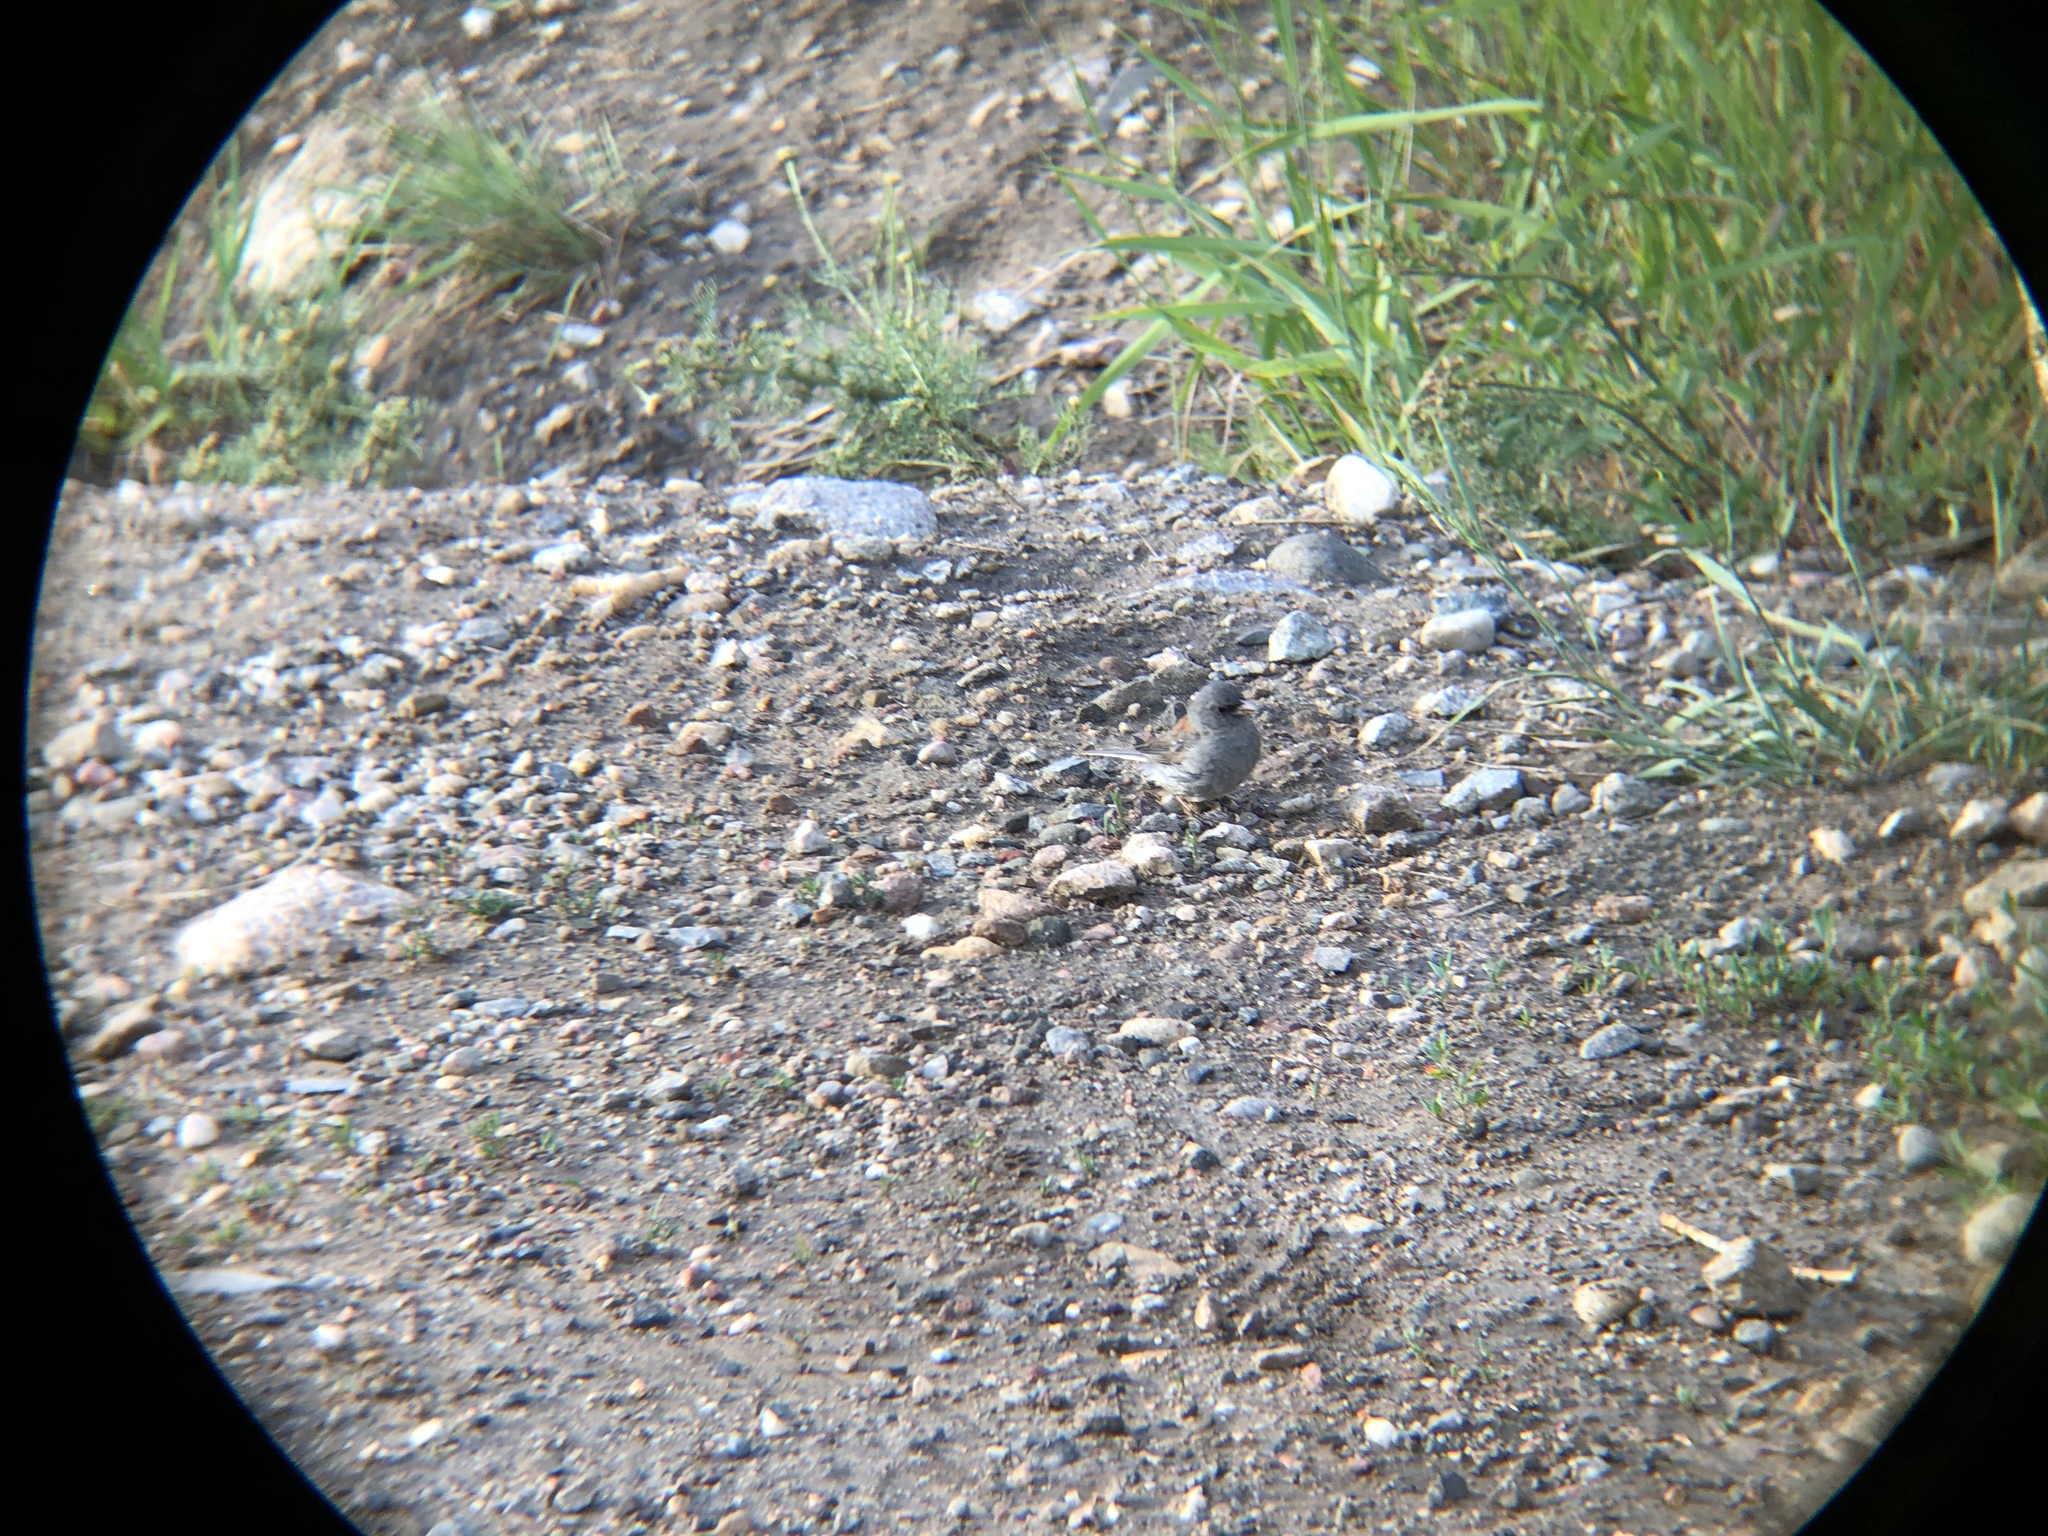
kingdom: Animalia
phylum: Chordata
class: Aves
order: Passeriformes
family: Passerellidae
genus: Junco
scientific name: Junco hyemalis
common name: Dark-eyed junco
